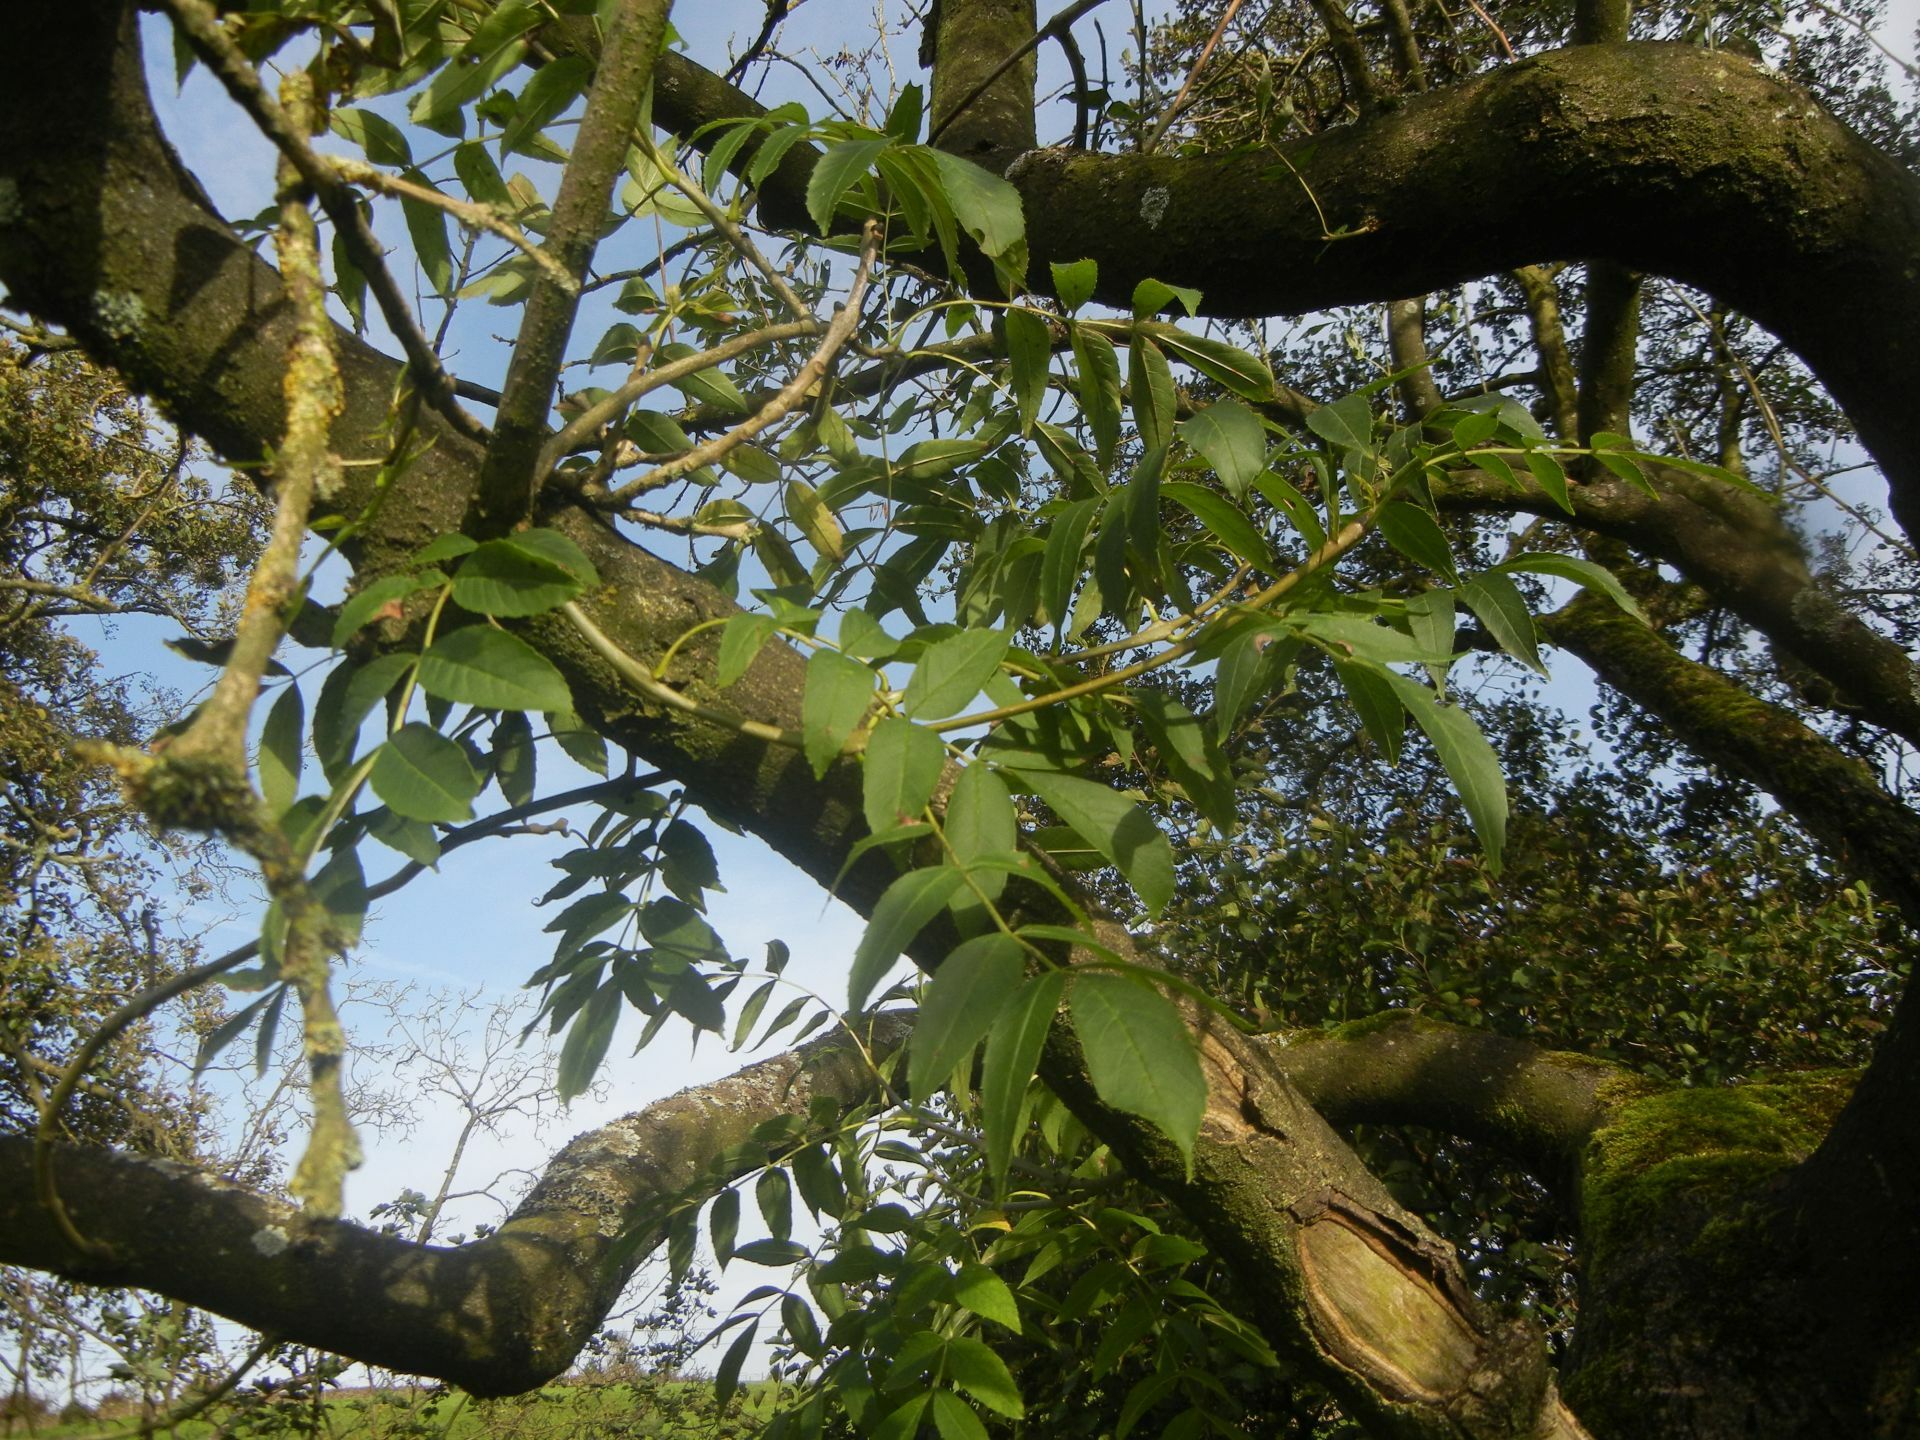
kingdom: Plantae
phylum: Tracheophyta
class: Magnoliopsida
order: Lamiales
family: Oleaceae
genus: Fraxinus
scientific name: Fraxinus excelsior
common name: European ash
